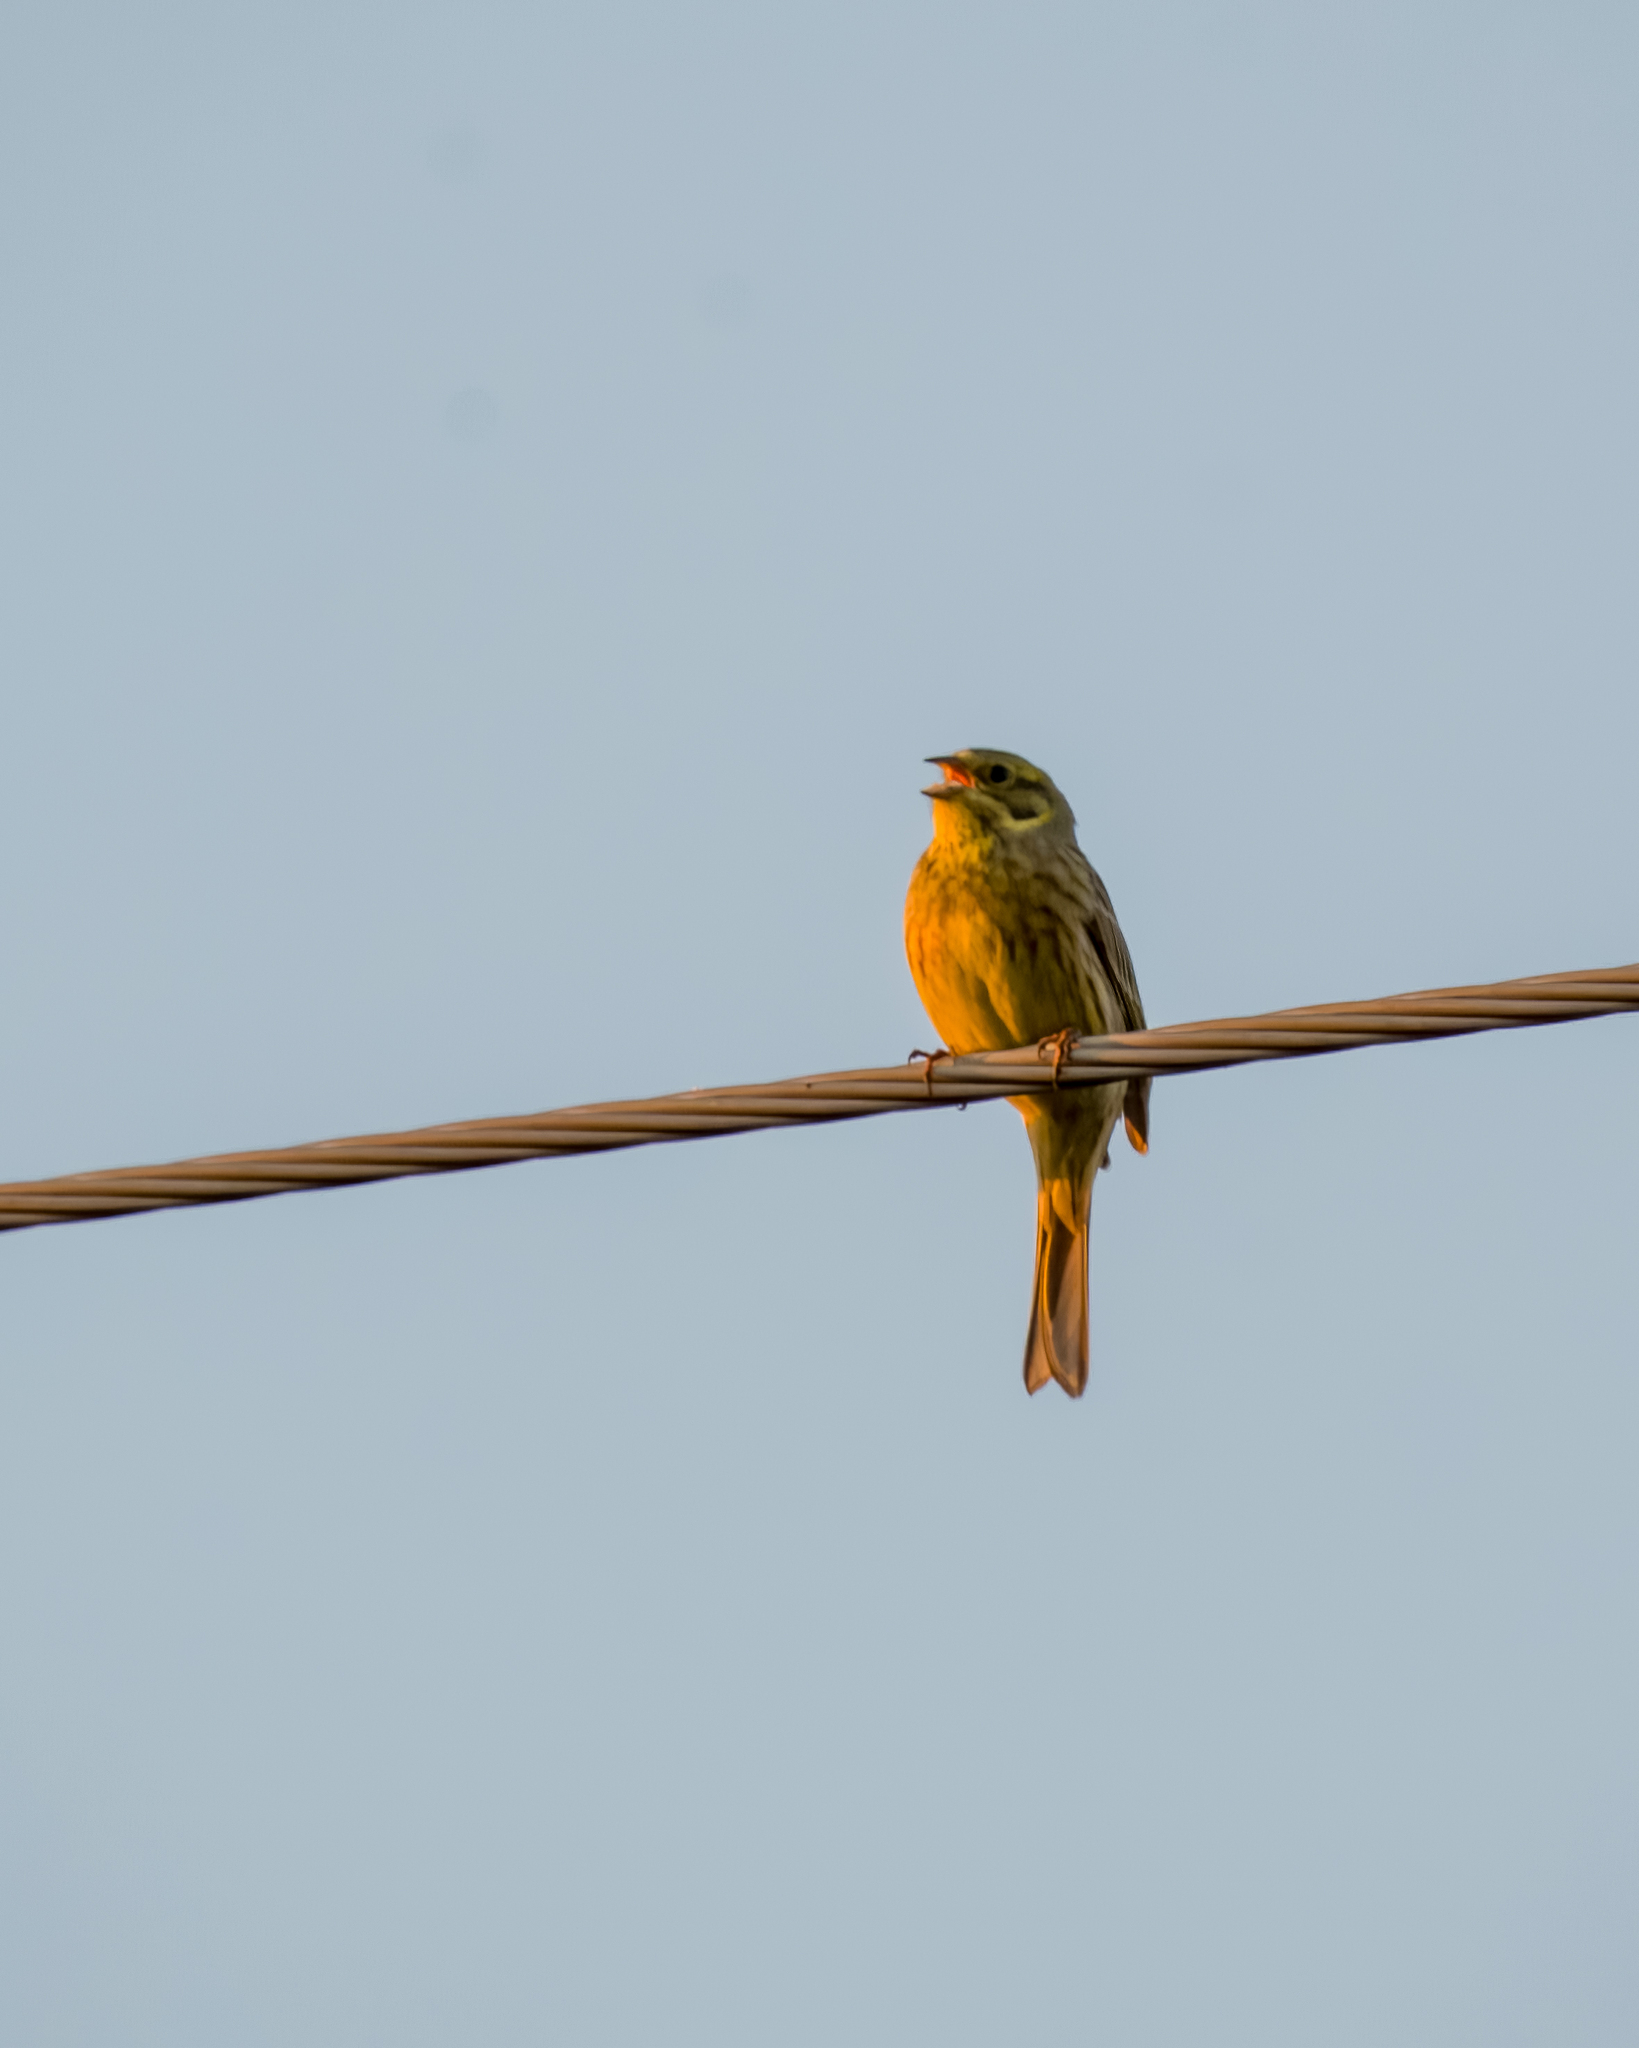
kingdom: Animalia
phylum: Chordata
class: Aves
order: Passeriformes
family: Emberizidae
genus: Emberiza
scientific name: Emberiza citrinella
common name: Yellowhammer
